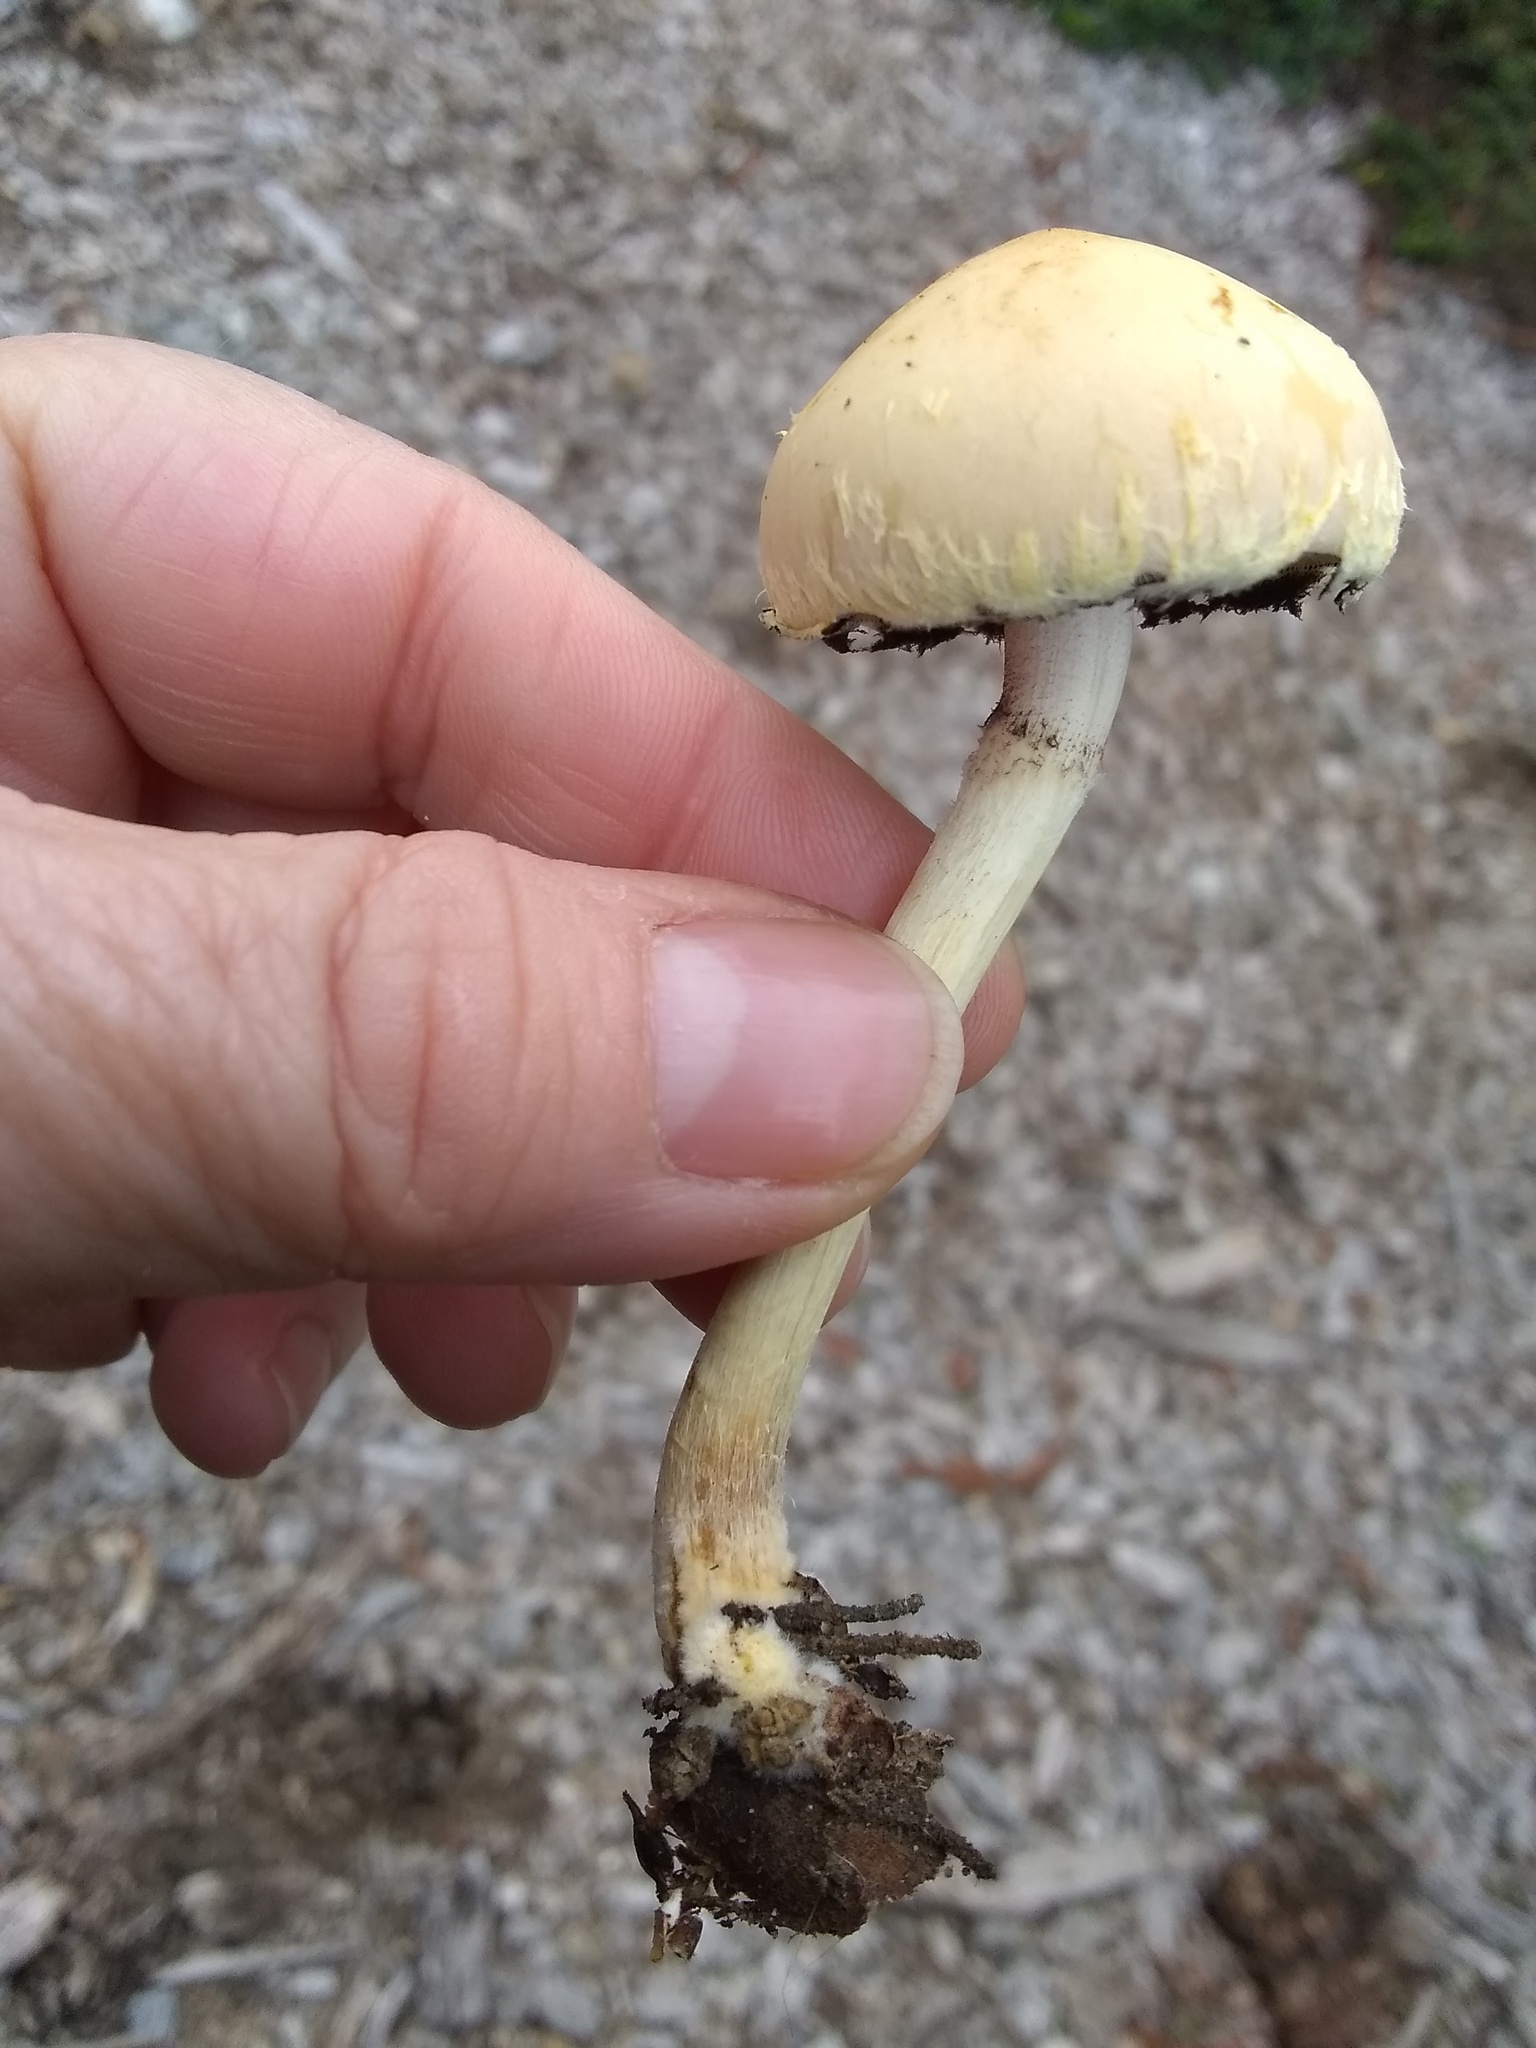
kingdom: Fungi
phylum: Basidiomycota
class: Agaricomycetes
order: Agaricales
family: Strophariaceae
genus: Leratiomyces
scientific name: Leratiomyces percevalii
